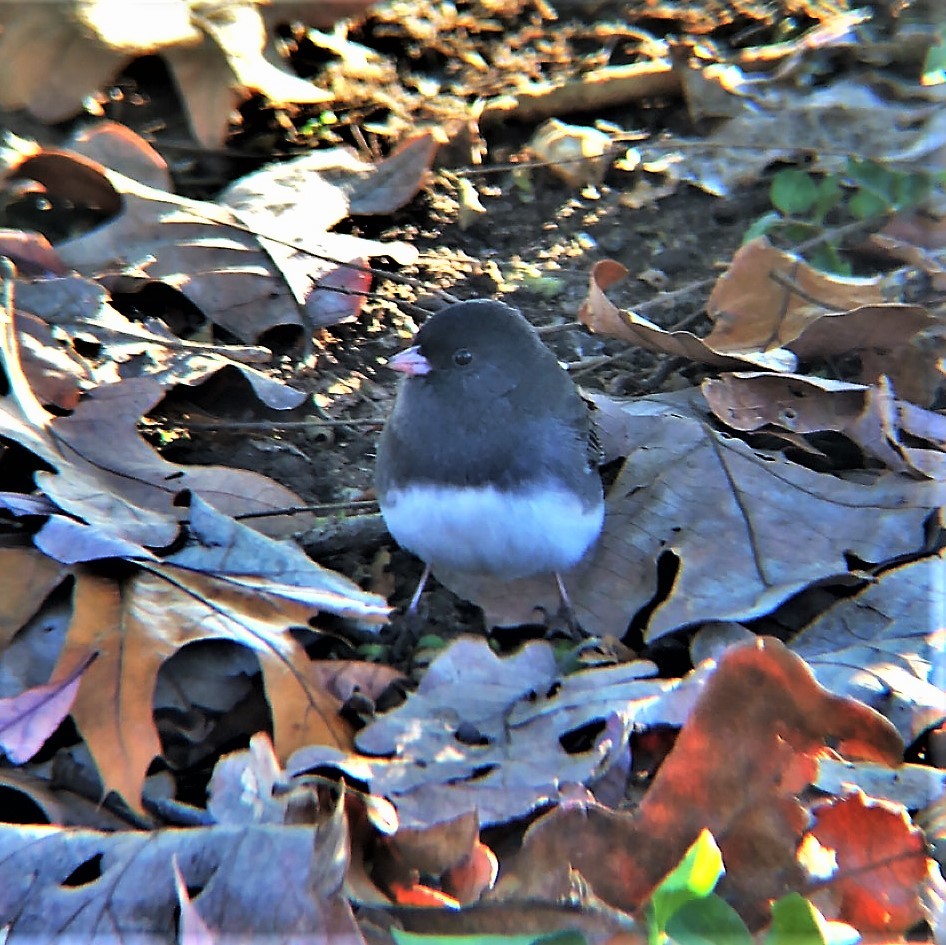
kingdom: Animalia
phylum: Chordata
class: Aves
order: Passeriformes
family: Passerellidae
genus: Junco
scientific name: Junco hyemalis
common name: Dark-eyed junco
